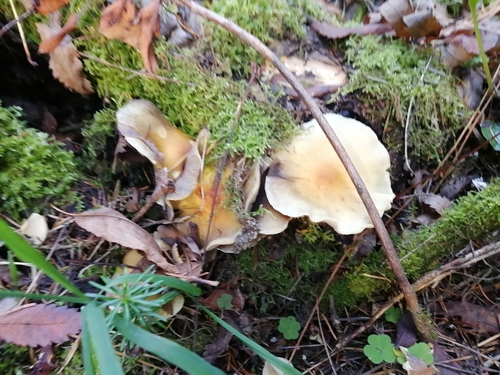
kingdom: Fungi
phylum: Basidiomycota
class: Agaricomycetes
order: Agaricales
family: Strophariaceae
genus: Hypholoma
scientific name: Hypholoma capnoides
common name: Conifer tuft
